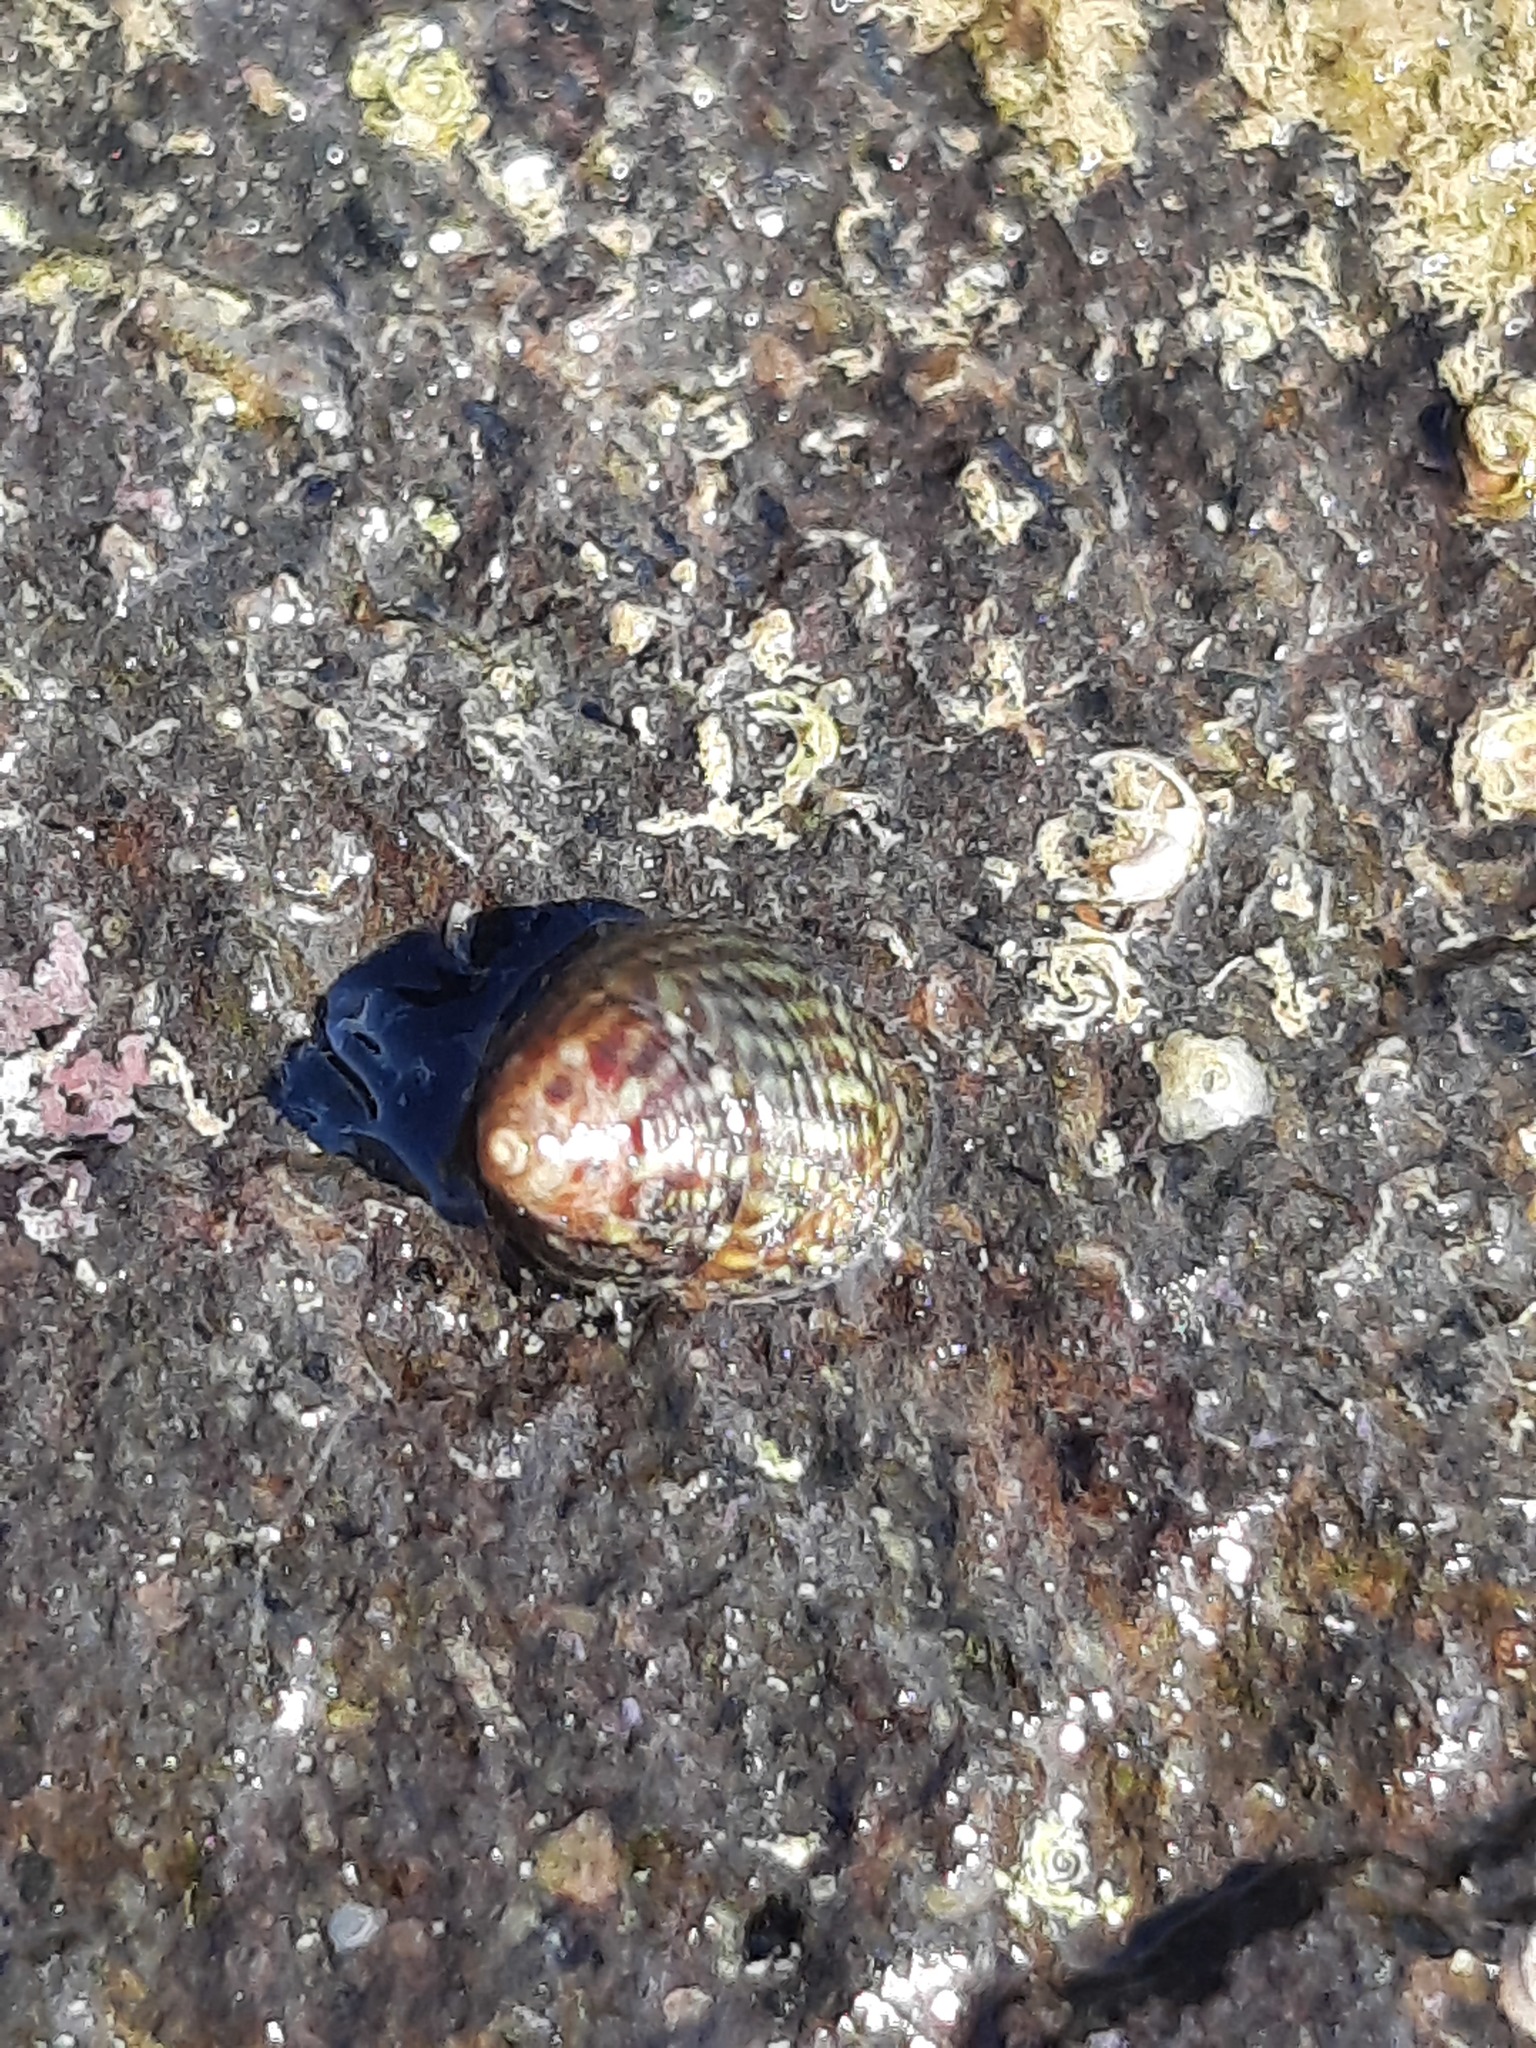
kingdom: Animalia
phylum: Mollusca
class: Gastropoda
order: Trochida
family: Trochidae
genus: Micrelenchus
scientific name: Micrelenchus sanguineus
